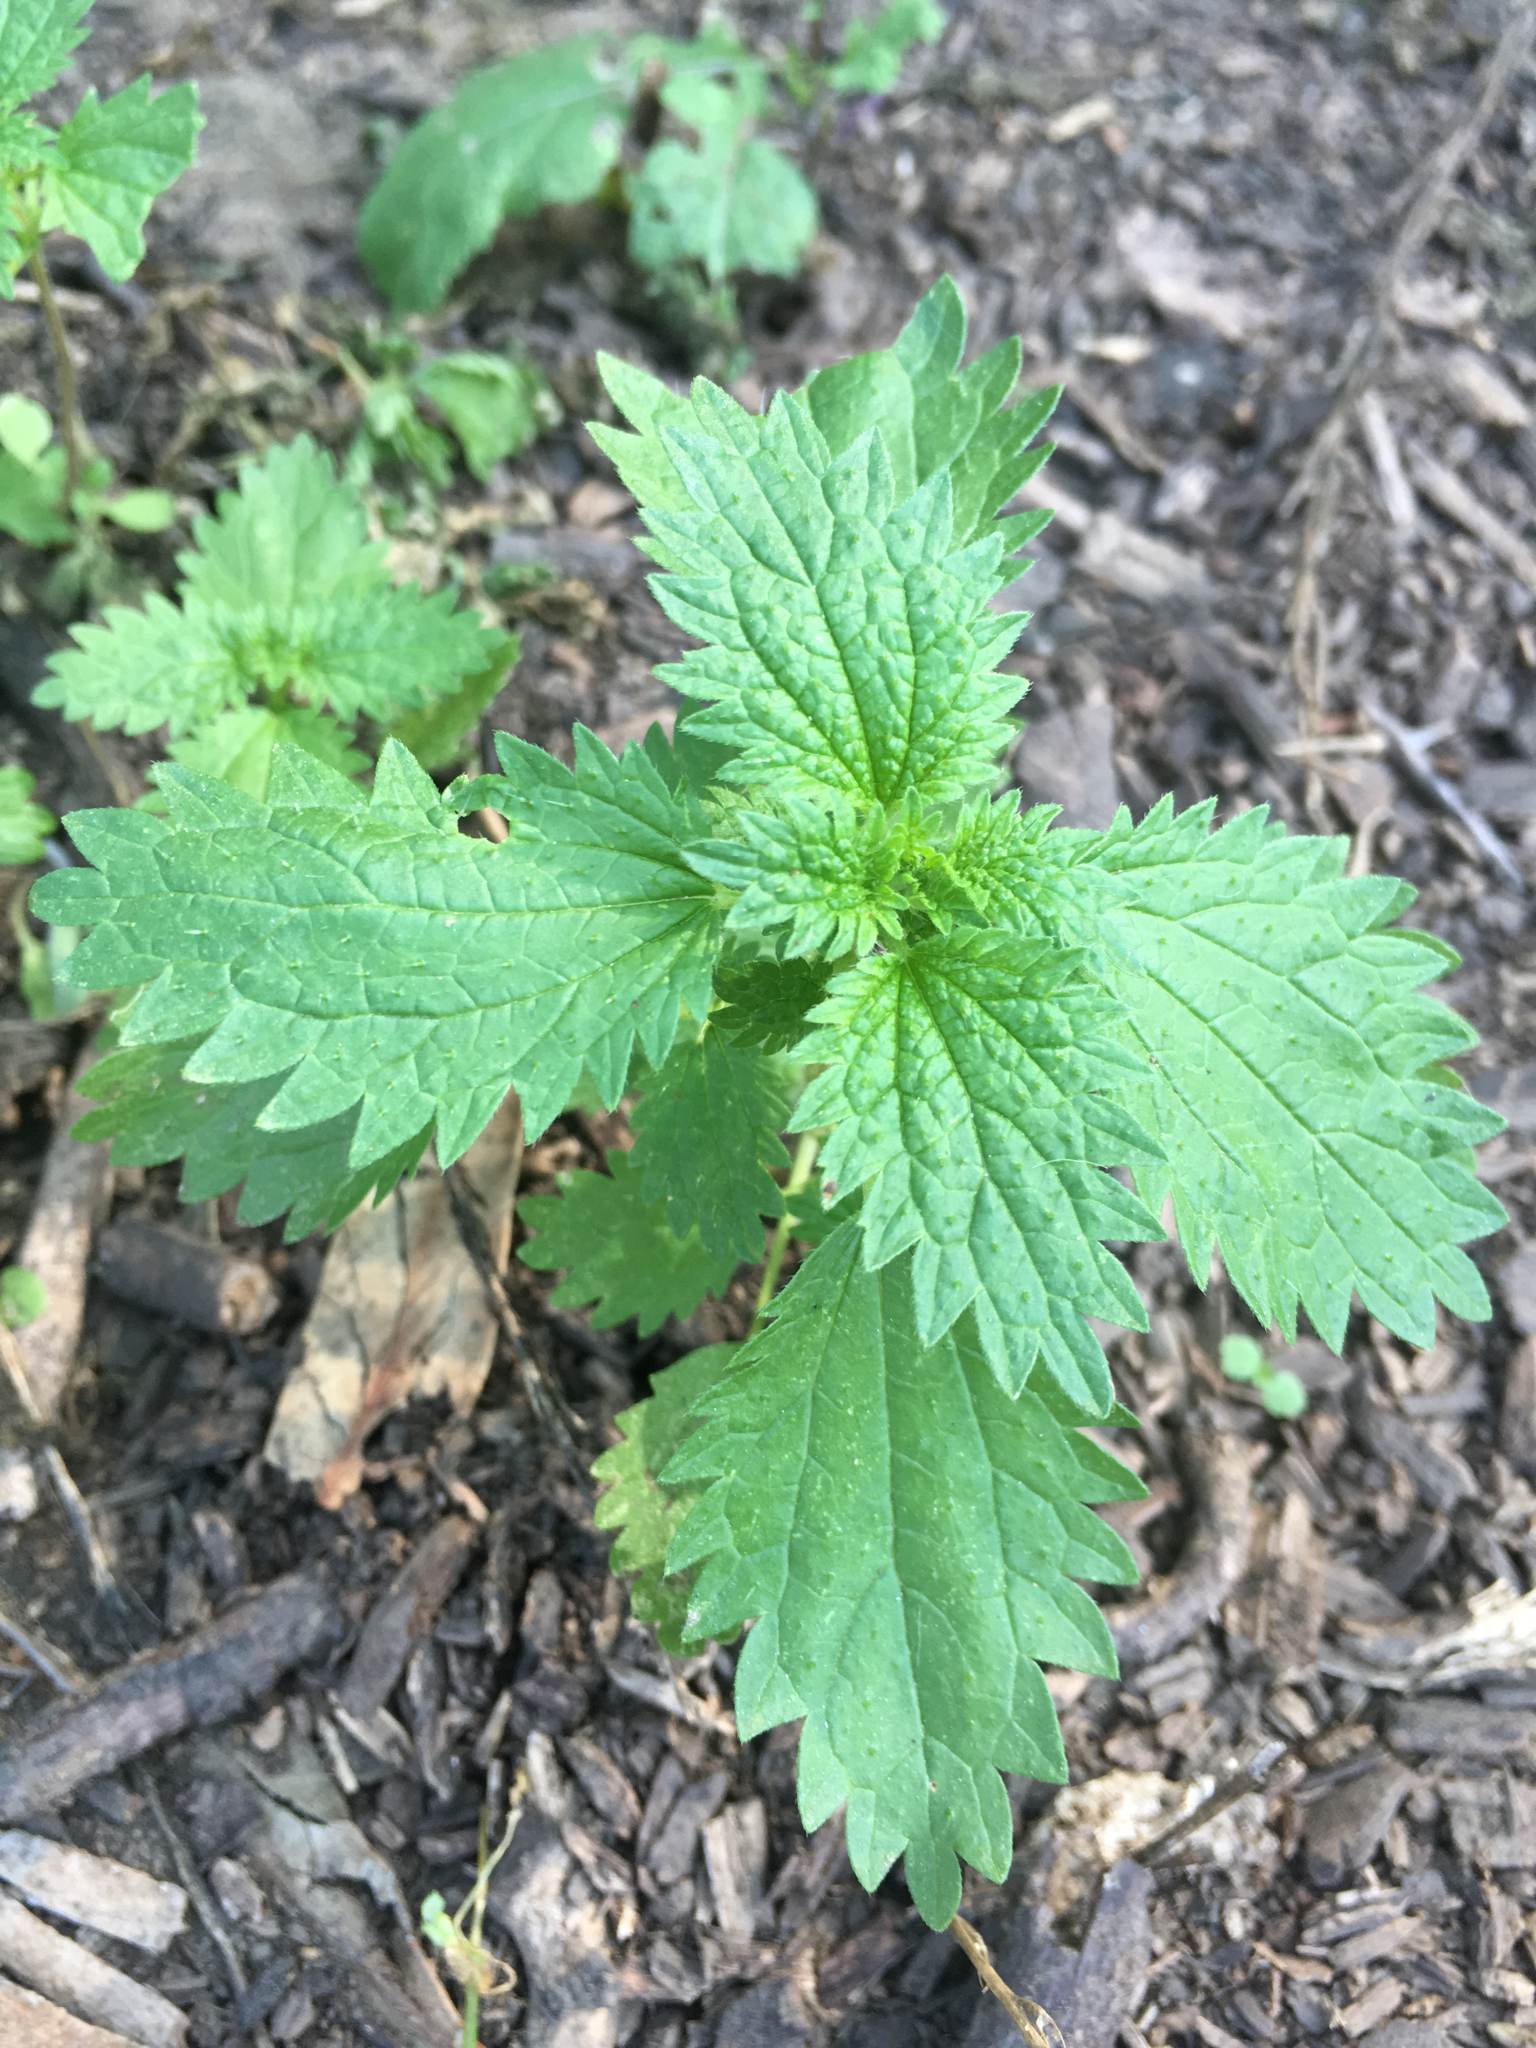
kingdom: Plantae
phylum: Tracheophyta
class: Magnoliopsida
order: Rosales
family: Urticaceae
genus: Urtica
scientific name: Urtica urens
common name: Dwarf nettle
